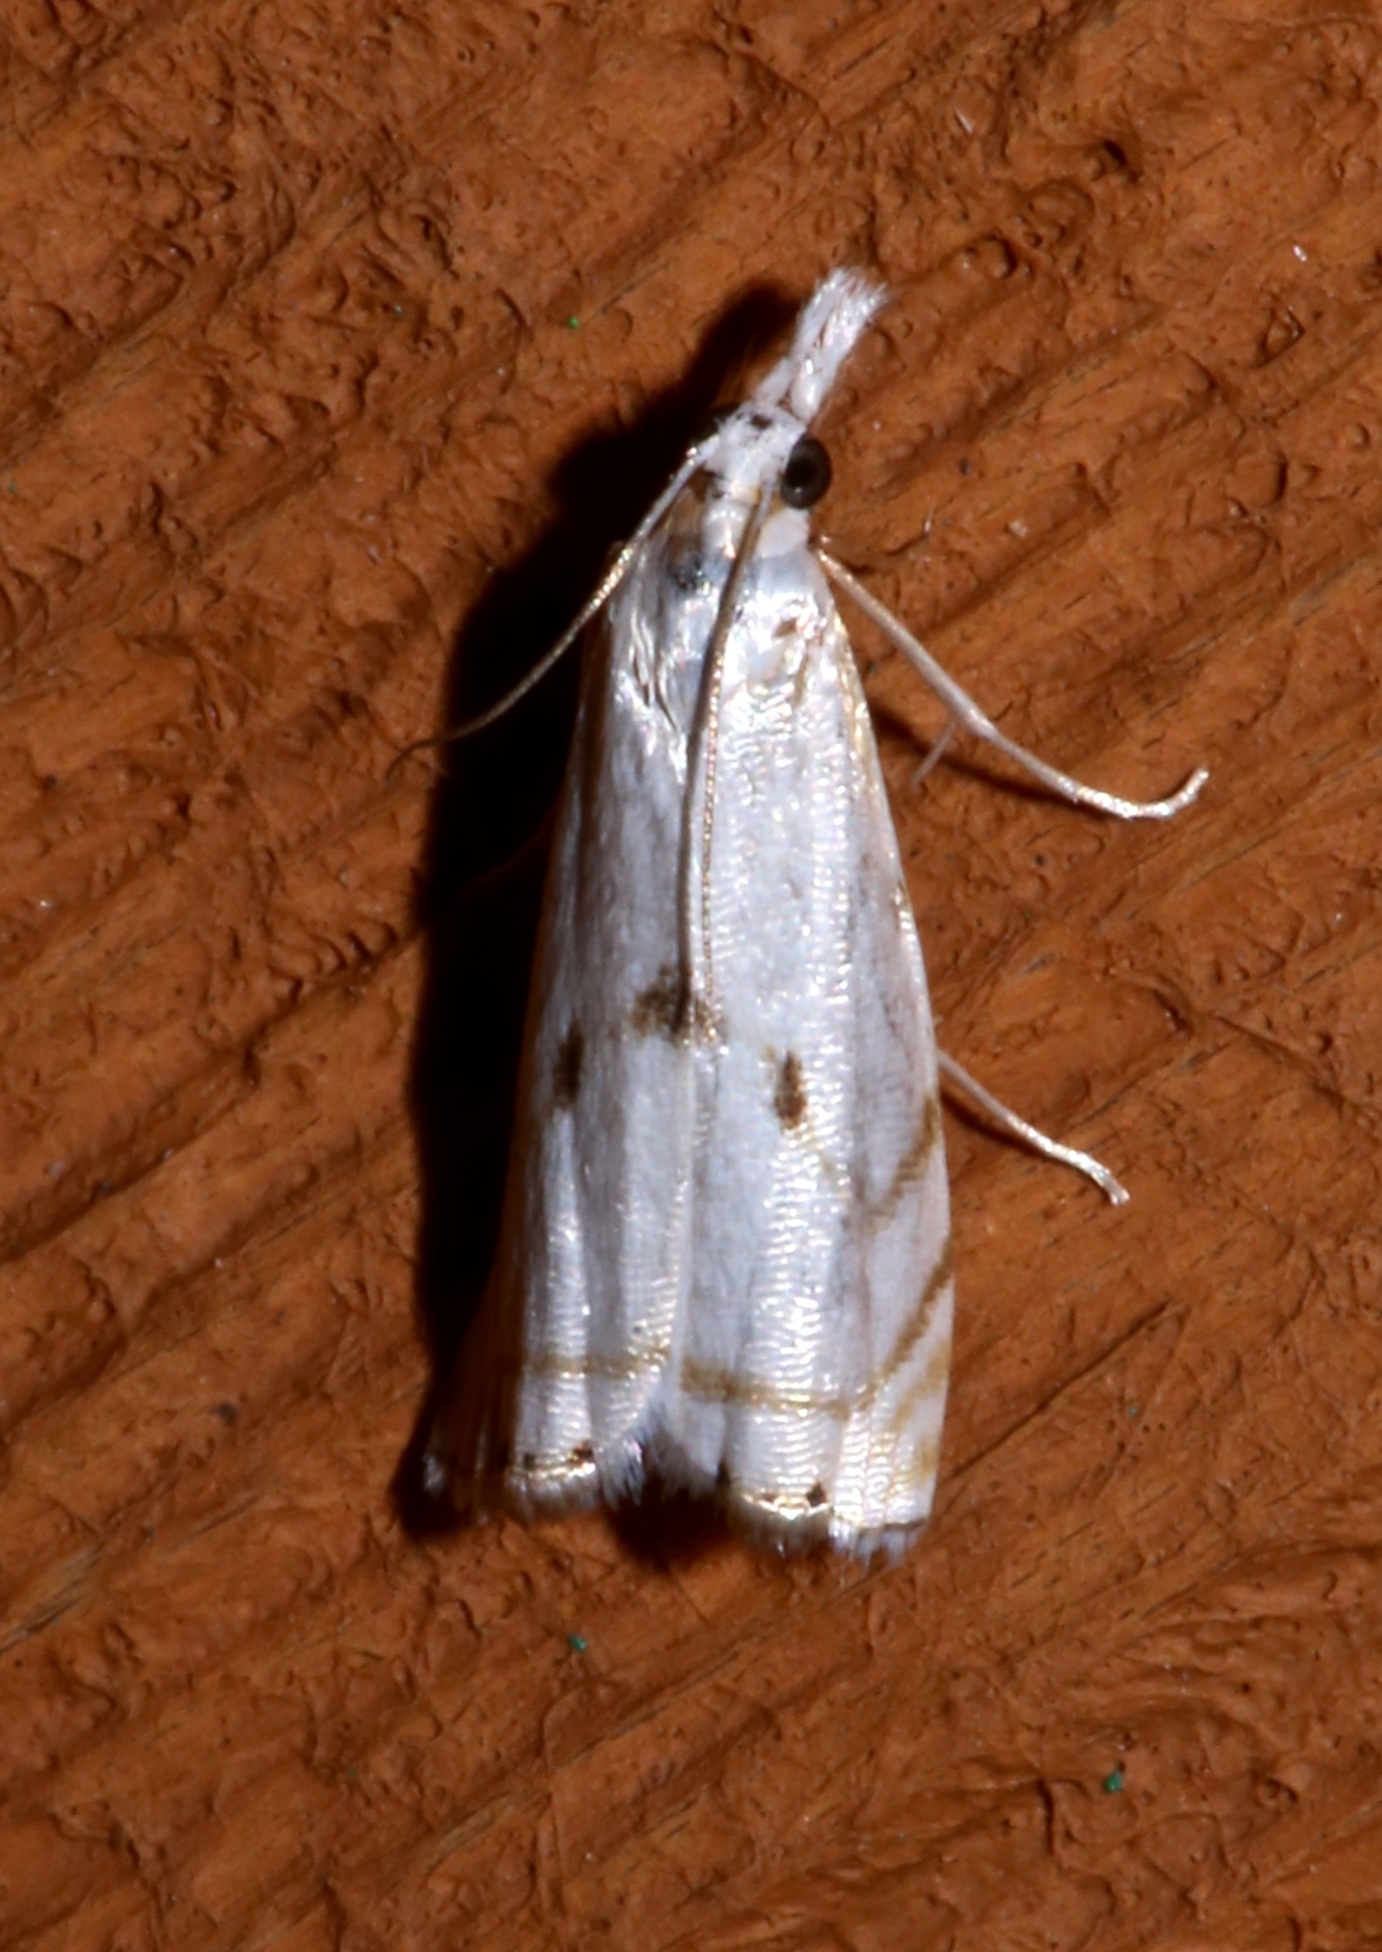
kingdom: Animalia
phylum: Arthropoda
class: Insecta
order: Lepidoptera
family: Crambidae
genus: Microcrambus
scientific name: Microcrambus biguttellus
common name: Gold-stripe grass-veneer moth
